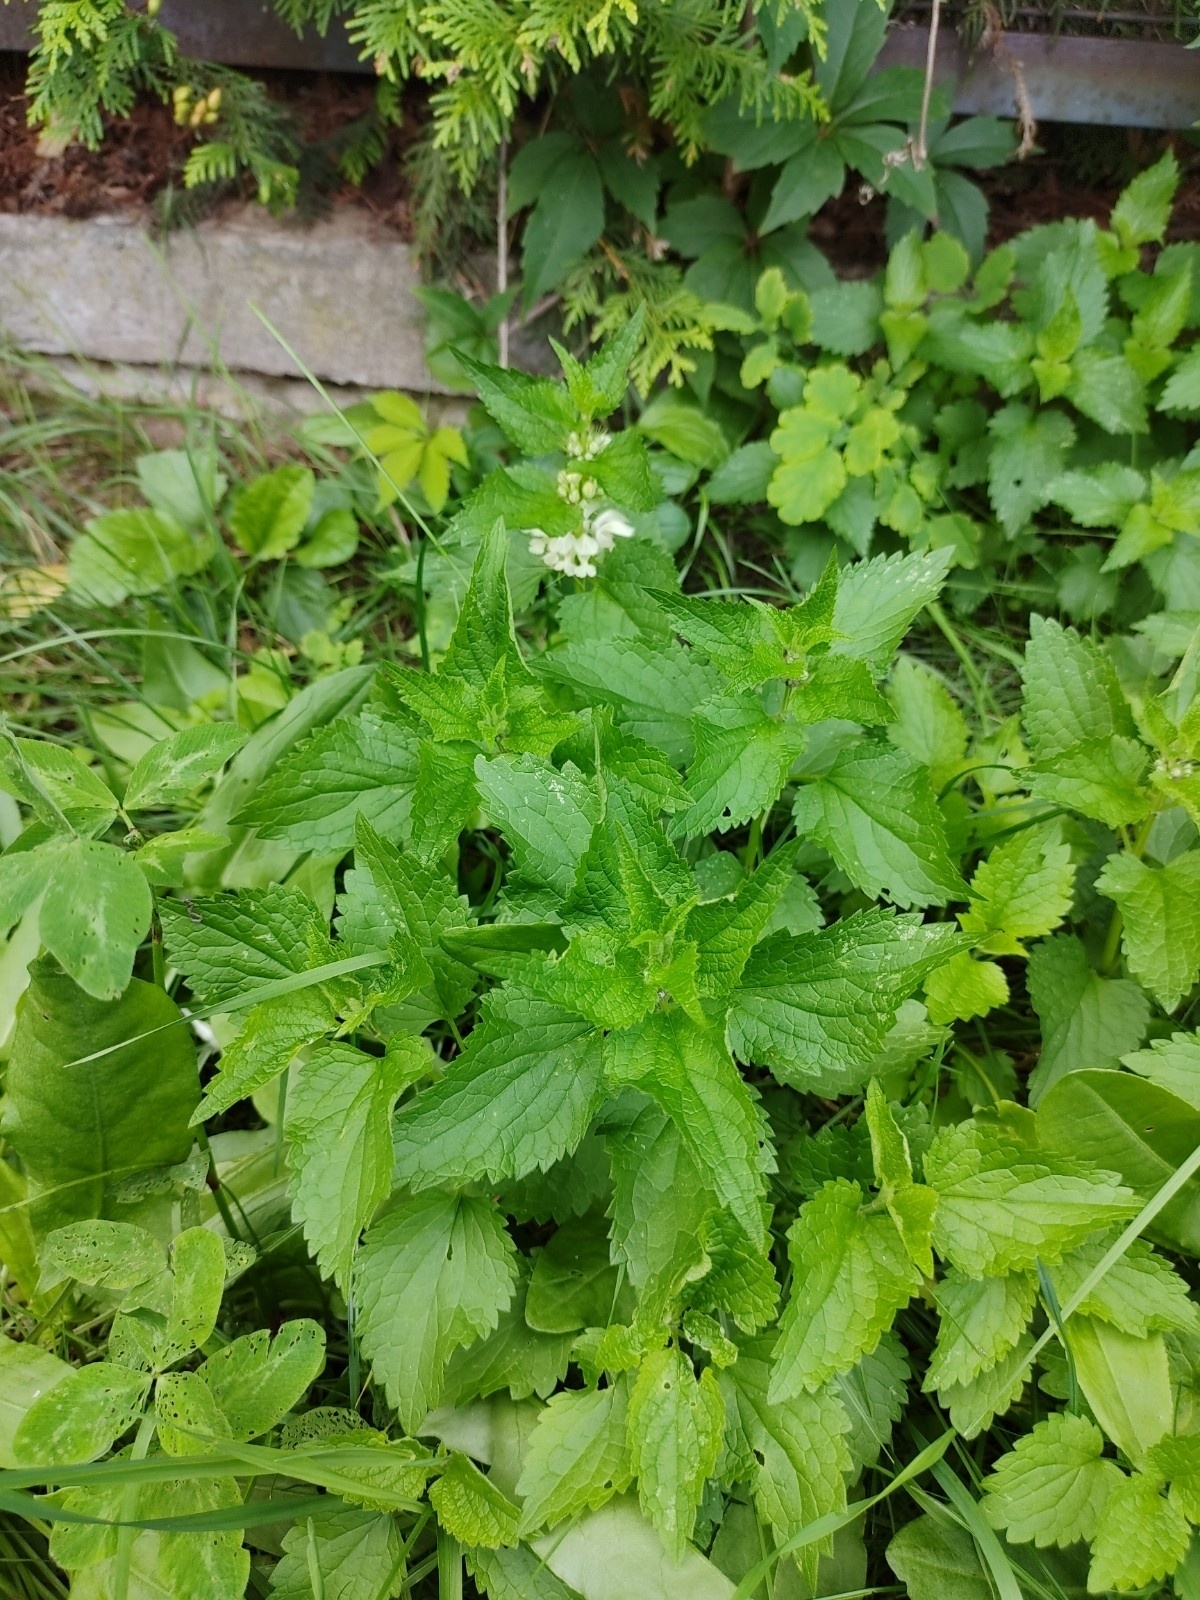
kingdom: Plantae
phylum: Tracheophyta
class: Magnoliopsida
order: Lamiales
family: Lamiaceae
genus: Lamium
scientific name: Lamium album
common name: White dead-nettle
